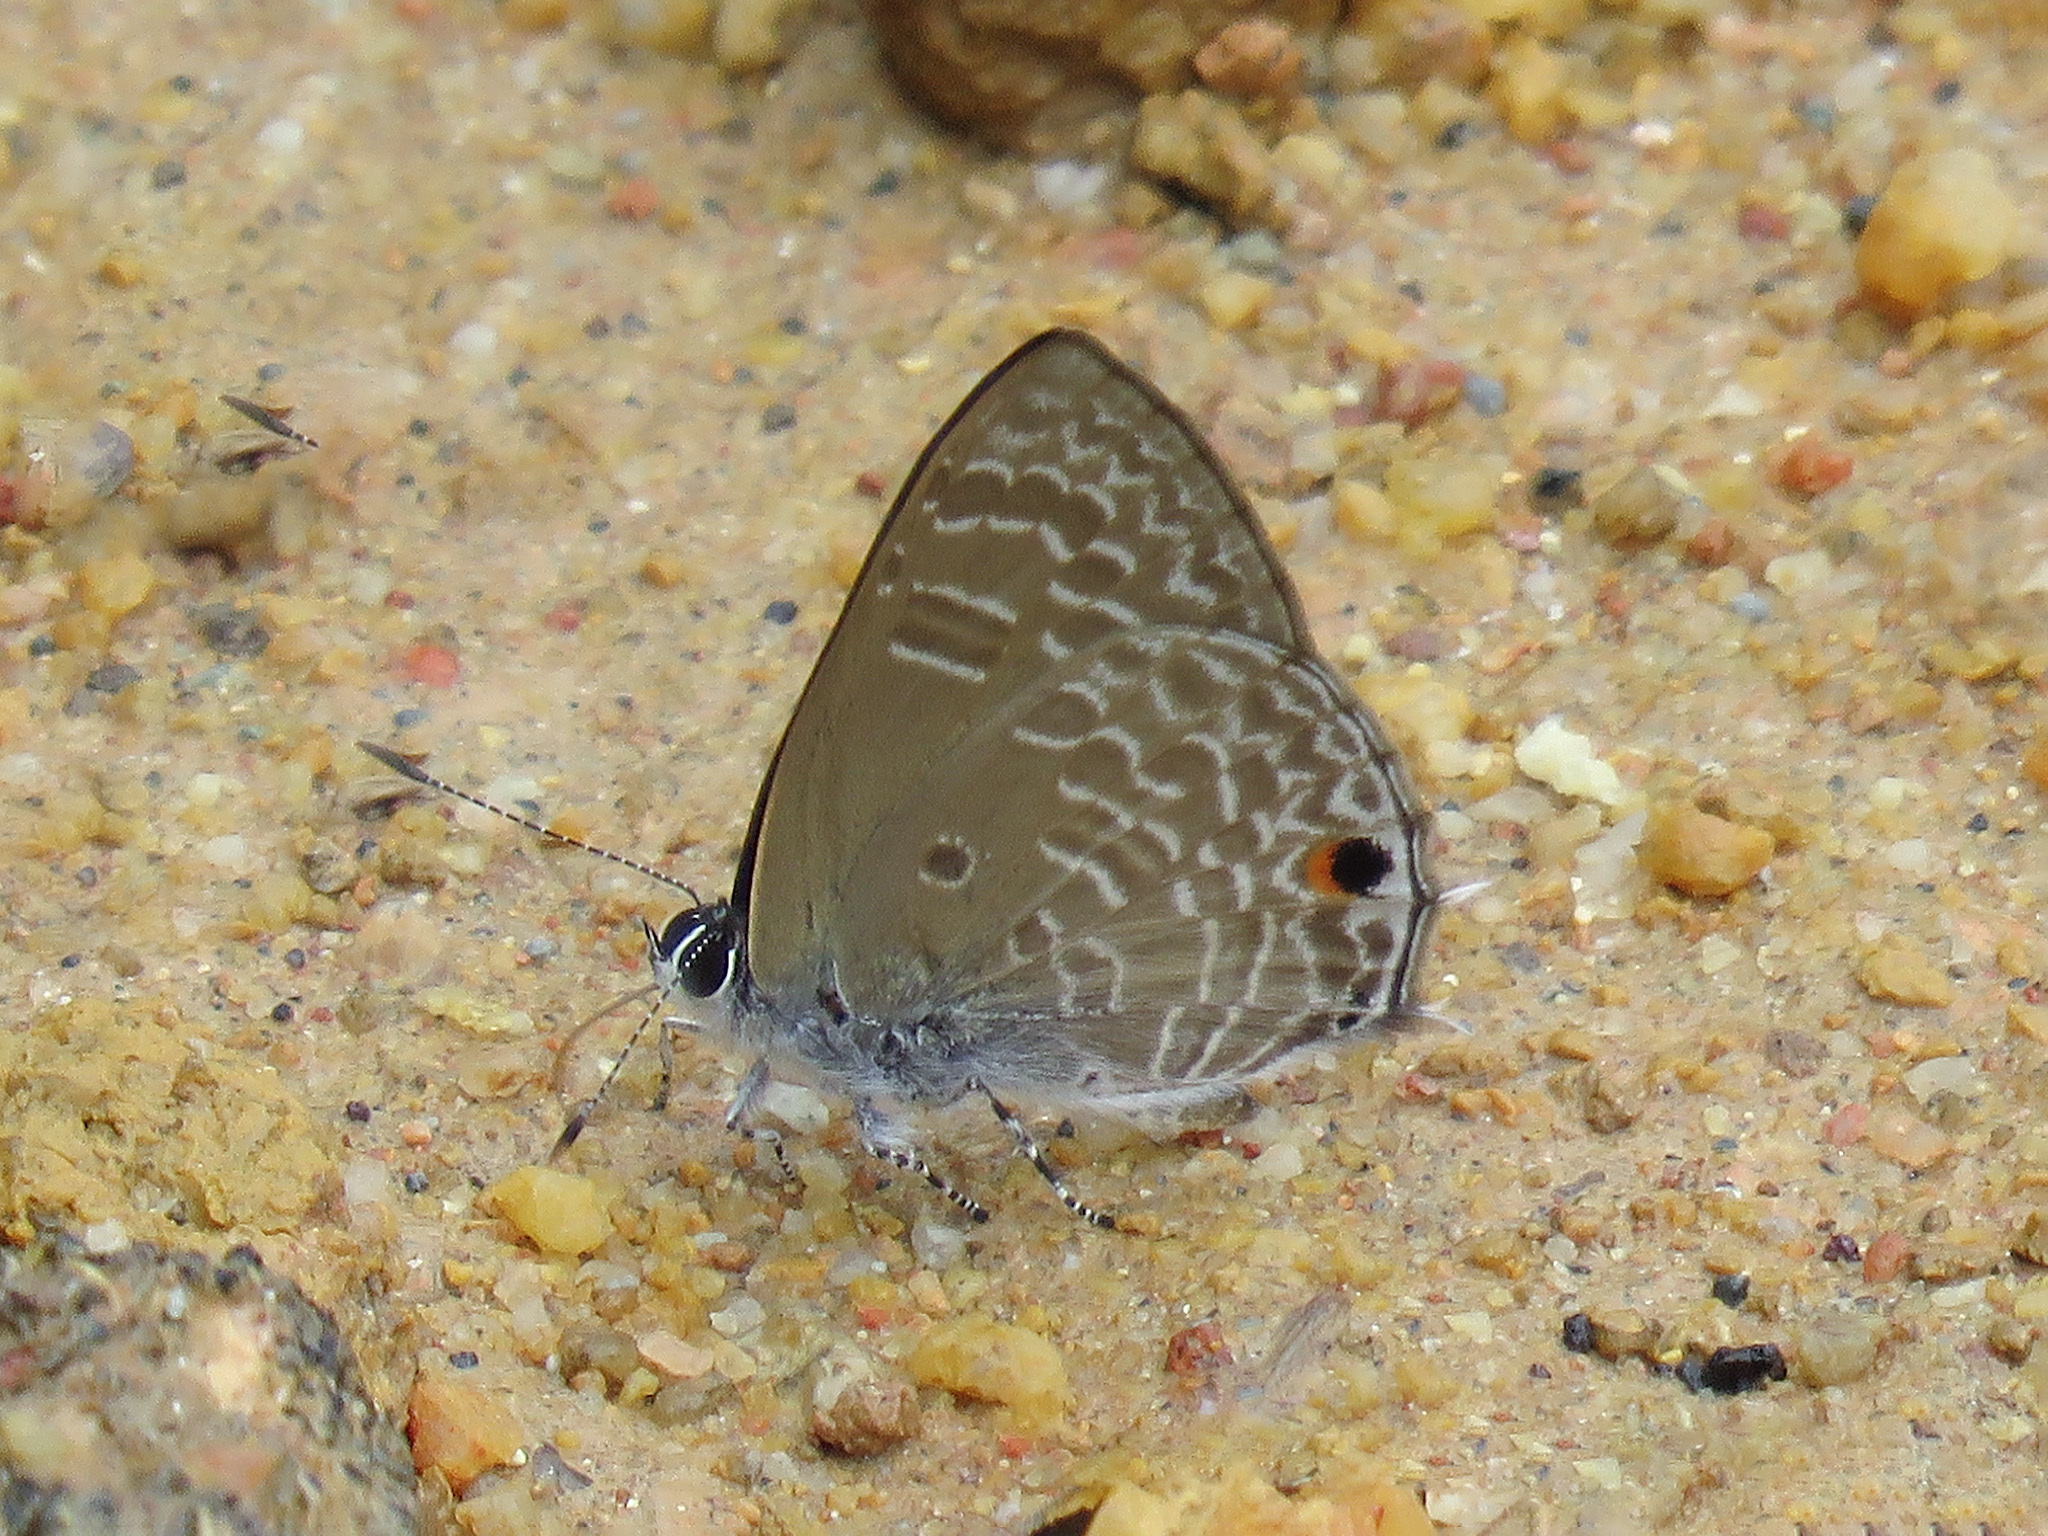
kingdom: Animalia
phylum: Arthropoda
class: Insecta
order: Lepidoptera
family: Lycaenidae
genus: Anthene
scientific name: Anthene lycaenina
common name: Pointed ciliate blue
